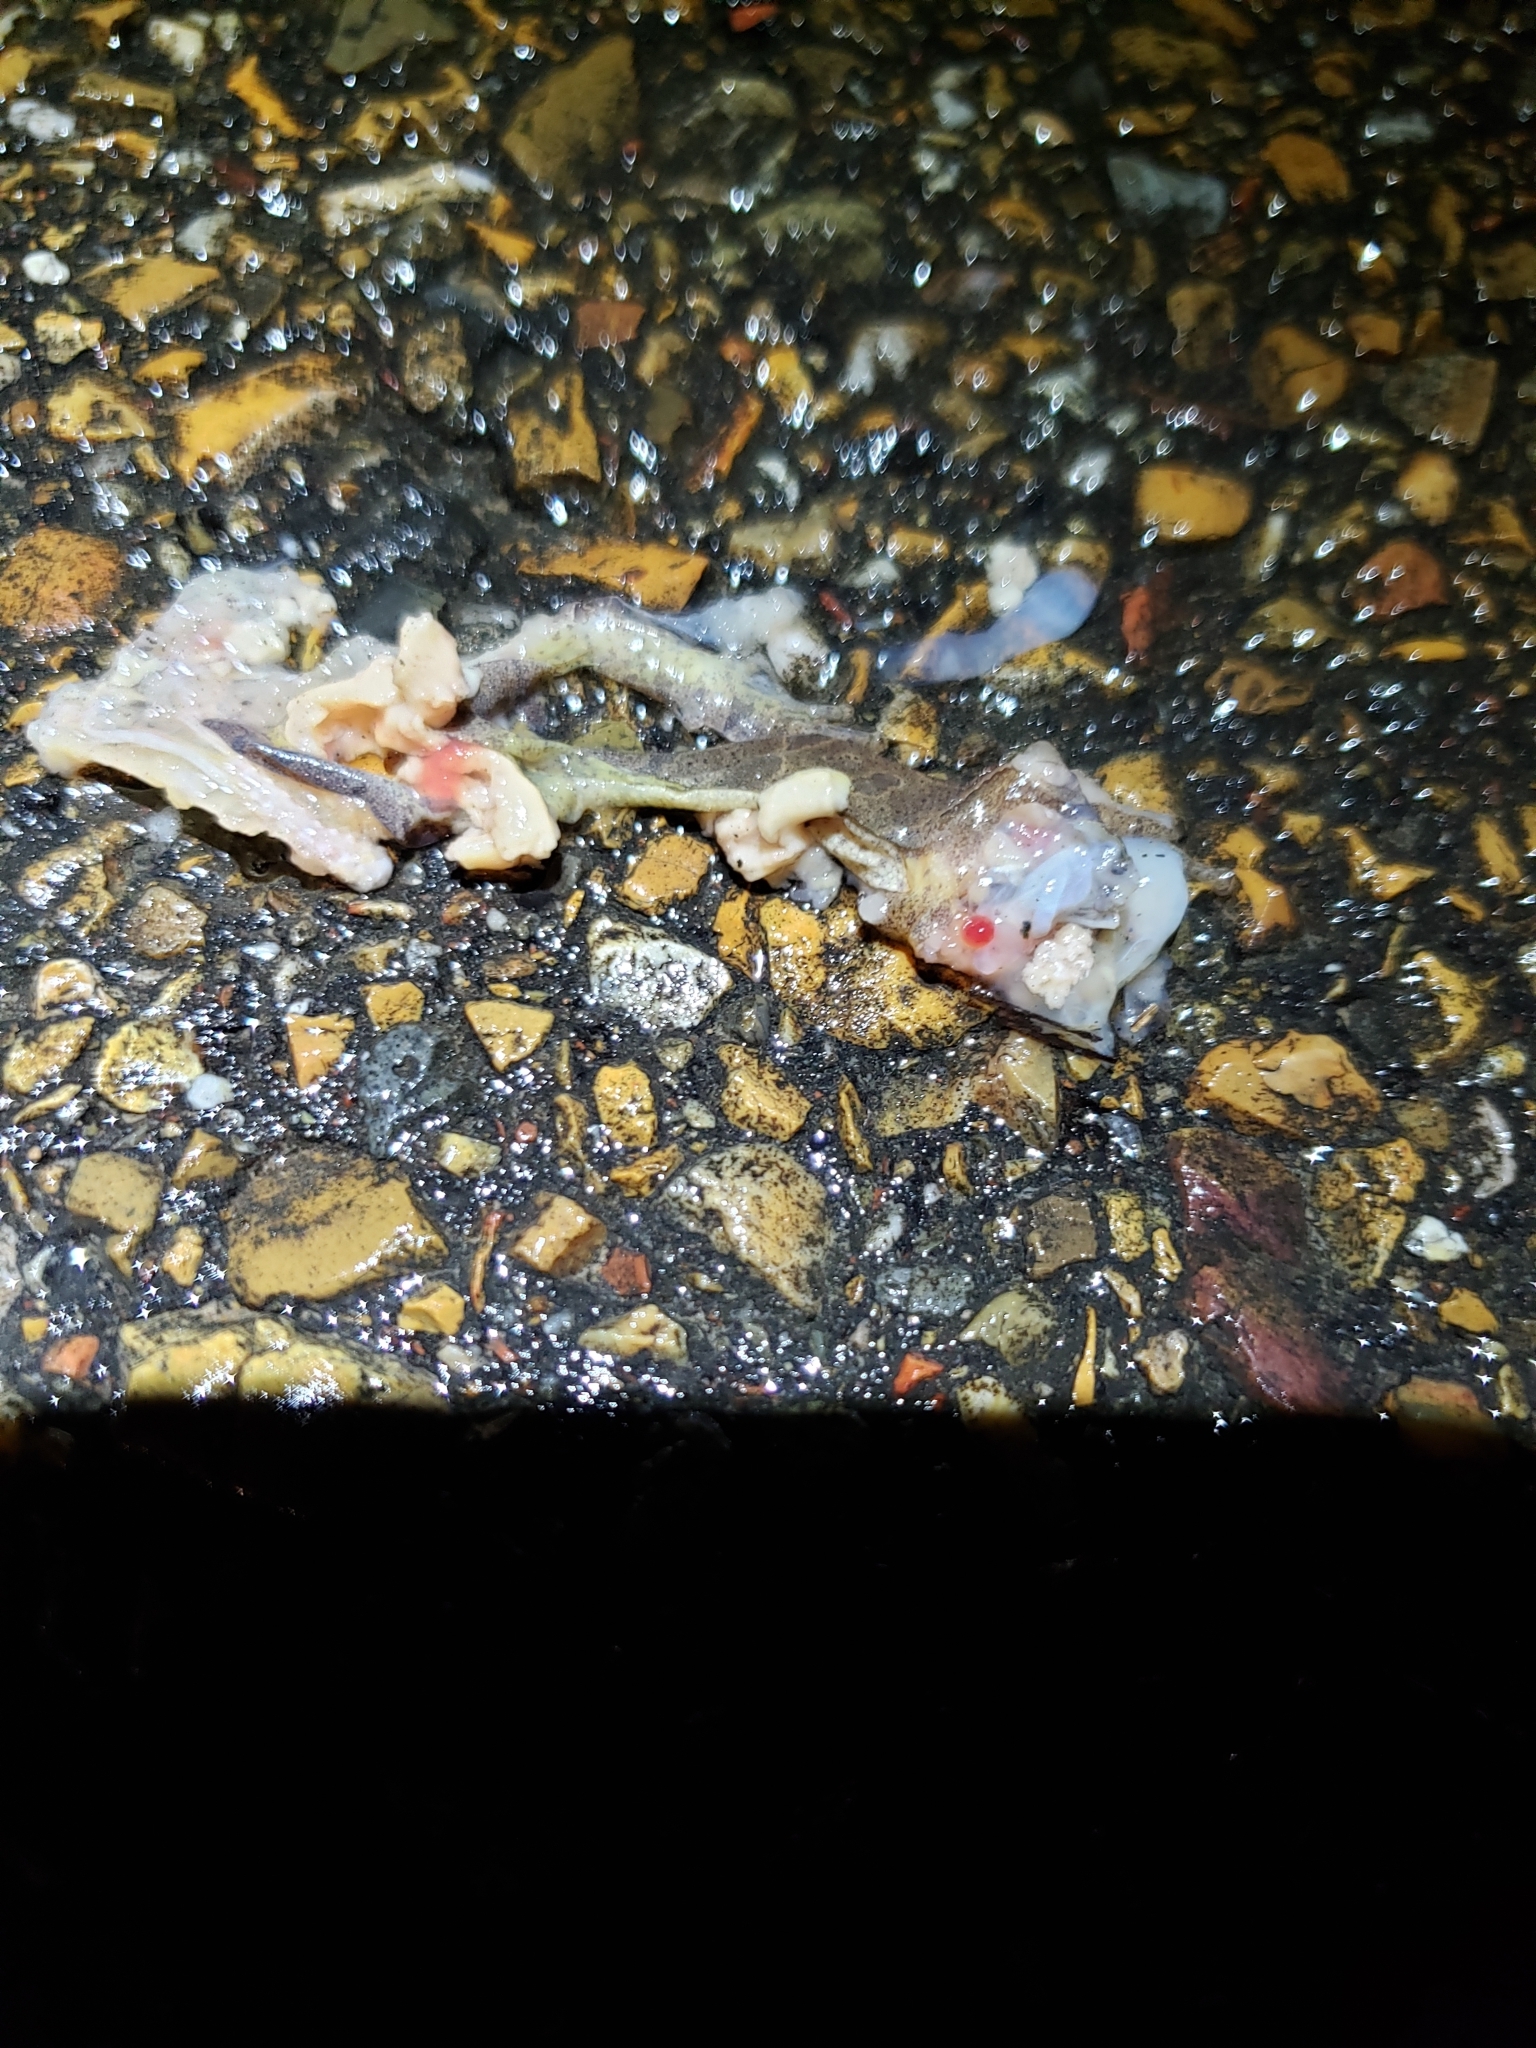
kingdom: Animalia
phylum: Chordata
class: Amphibia
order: Anura
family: Hylidae
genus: Pseudacris
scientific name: Pseudacris crucifer
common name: Spring peeper
